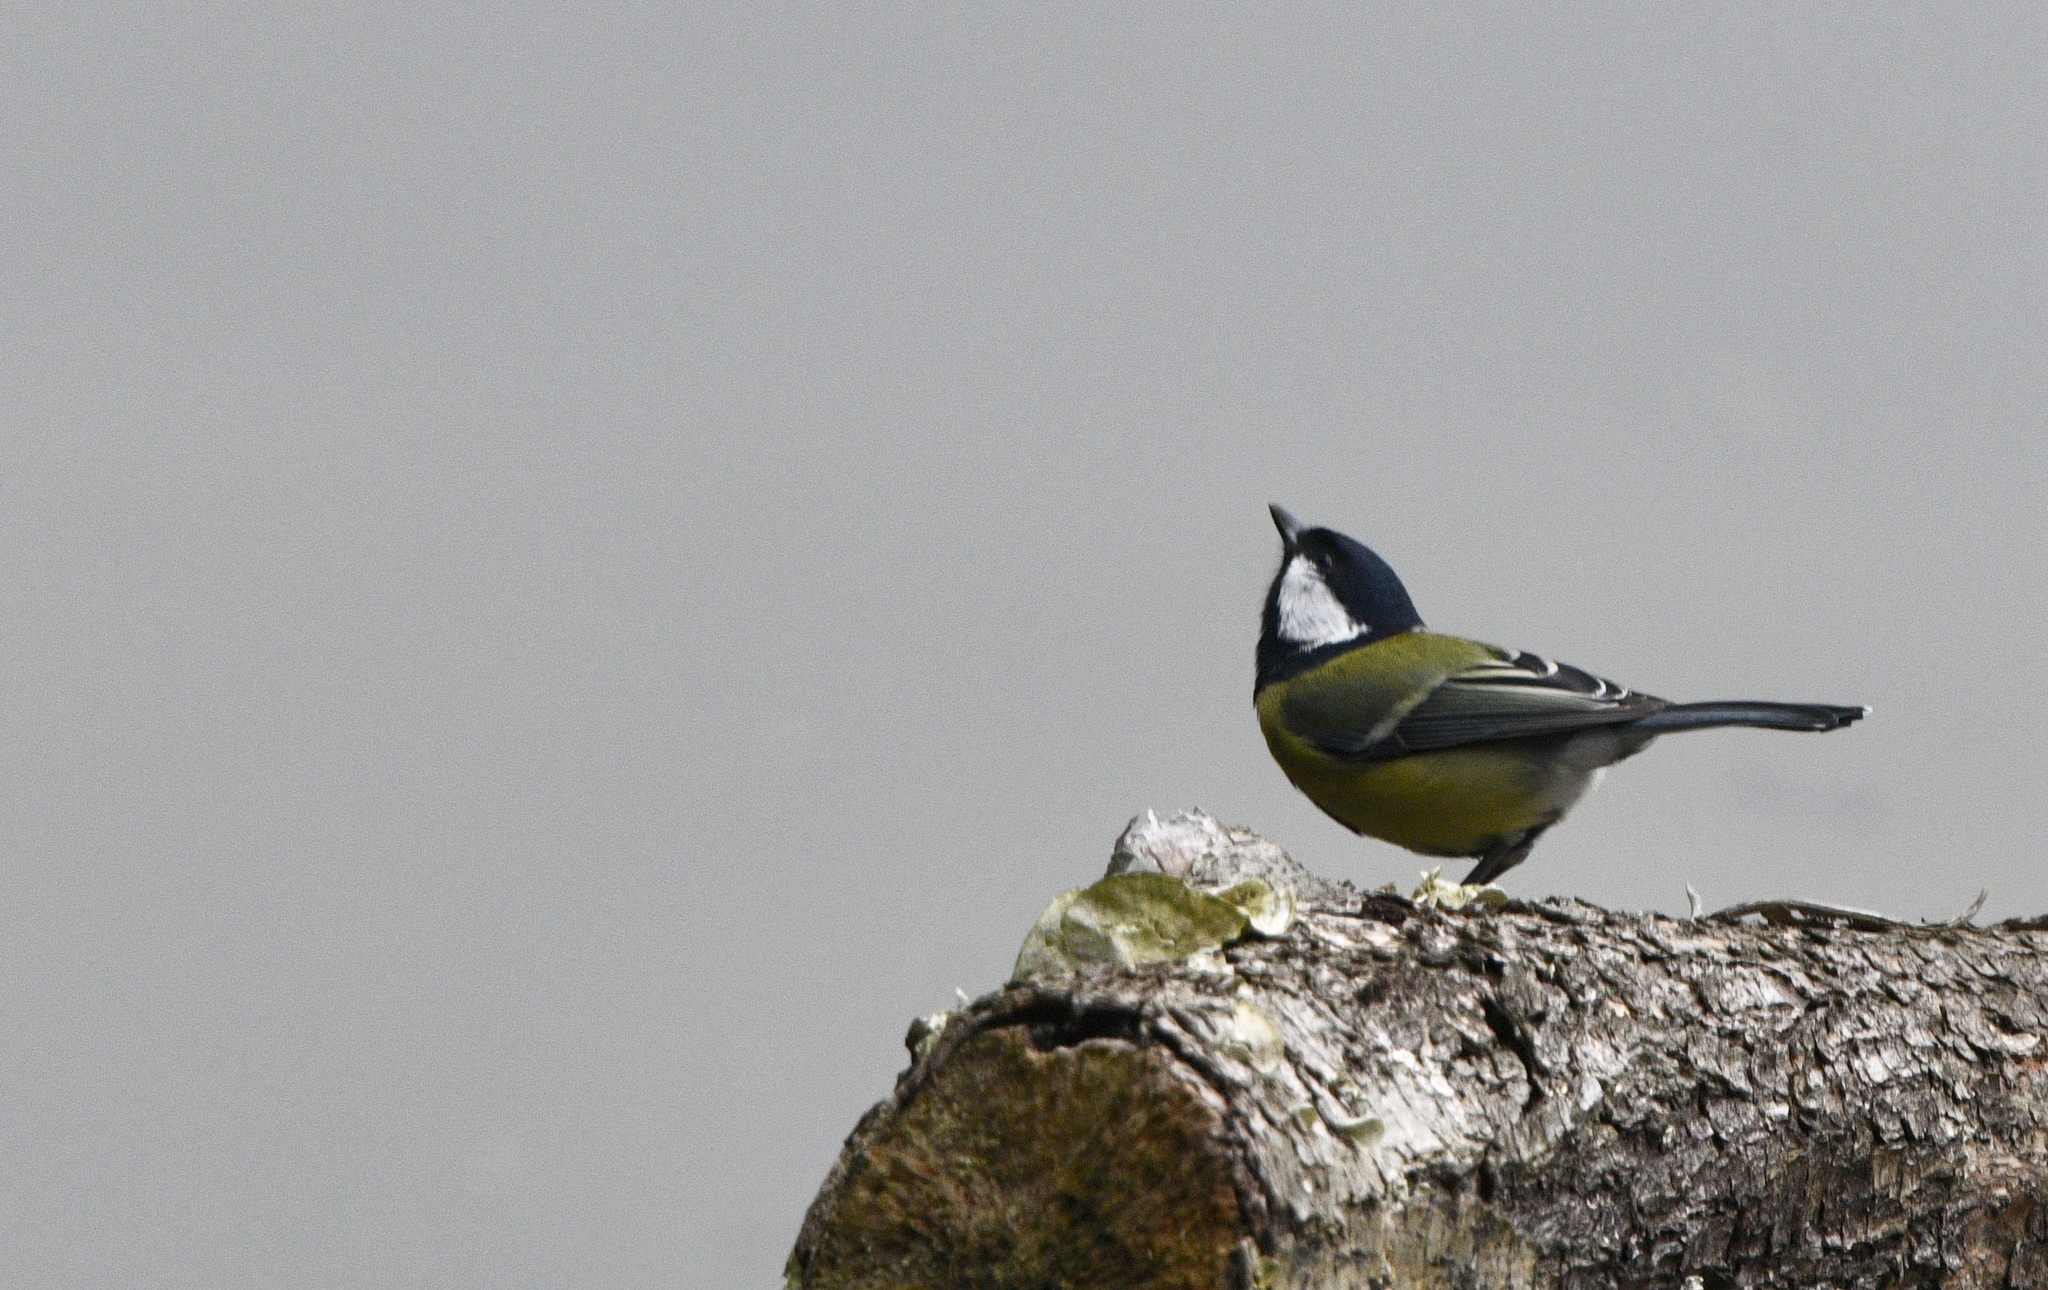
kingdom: Animalia
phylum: Chordata
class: Aves
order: Passeriformes
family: Paridae
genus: Parus
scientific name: Parus major
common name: Great tit
